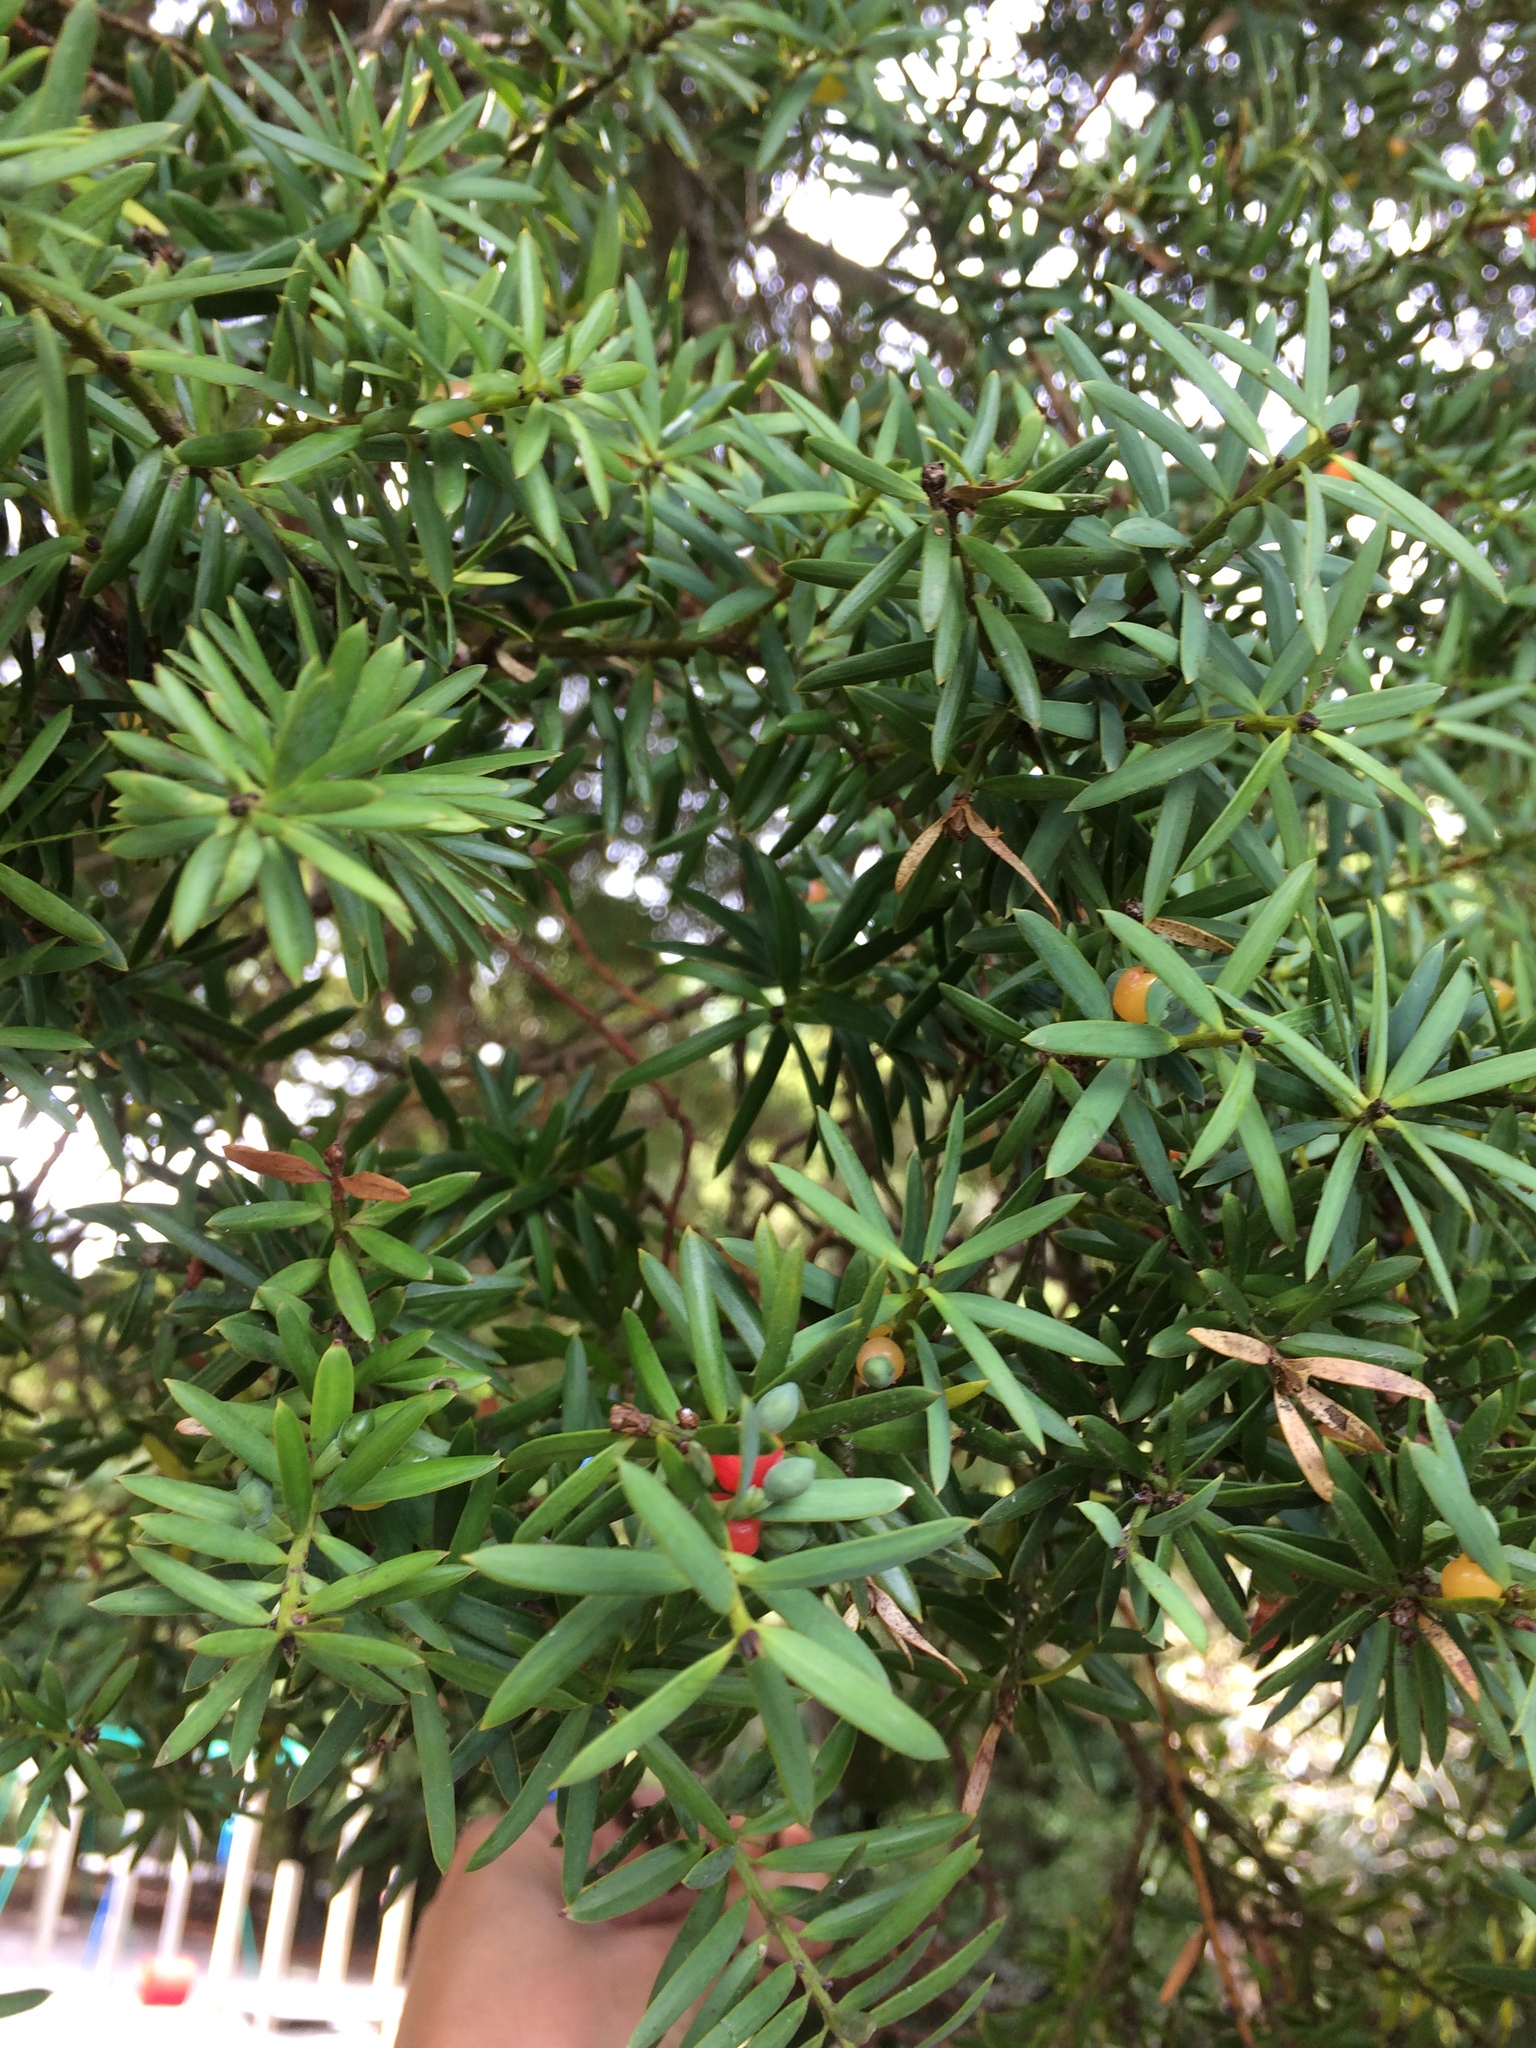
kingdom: Plantae
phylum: Tracheophyta
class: Pinopsida
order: Pinales
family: Podocarpaceae
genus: Podocarpus
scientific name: Podocarpus totara
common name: Totara
